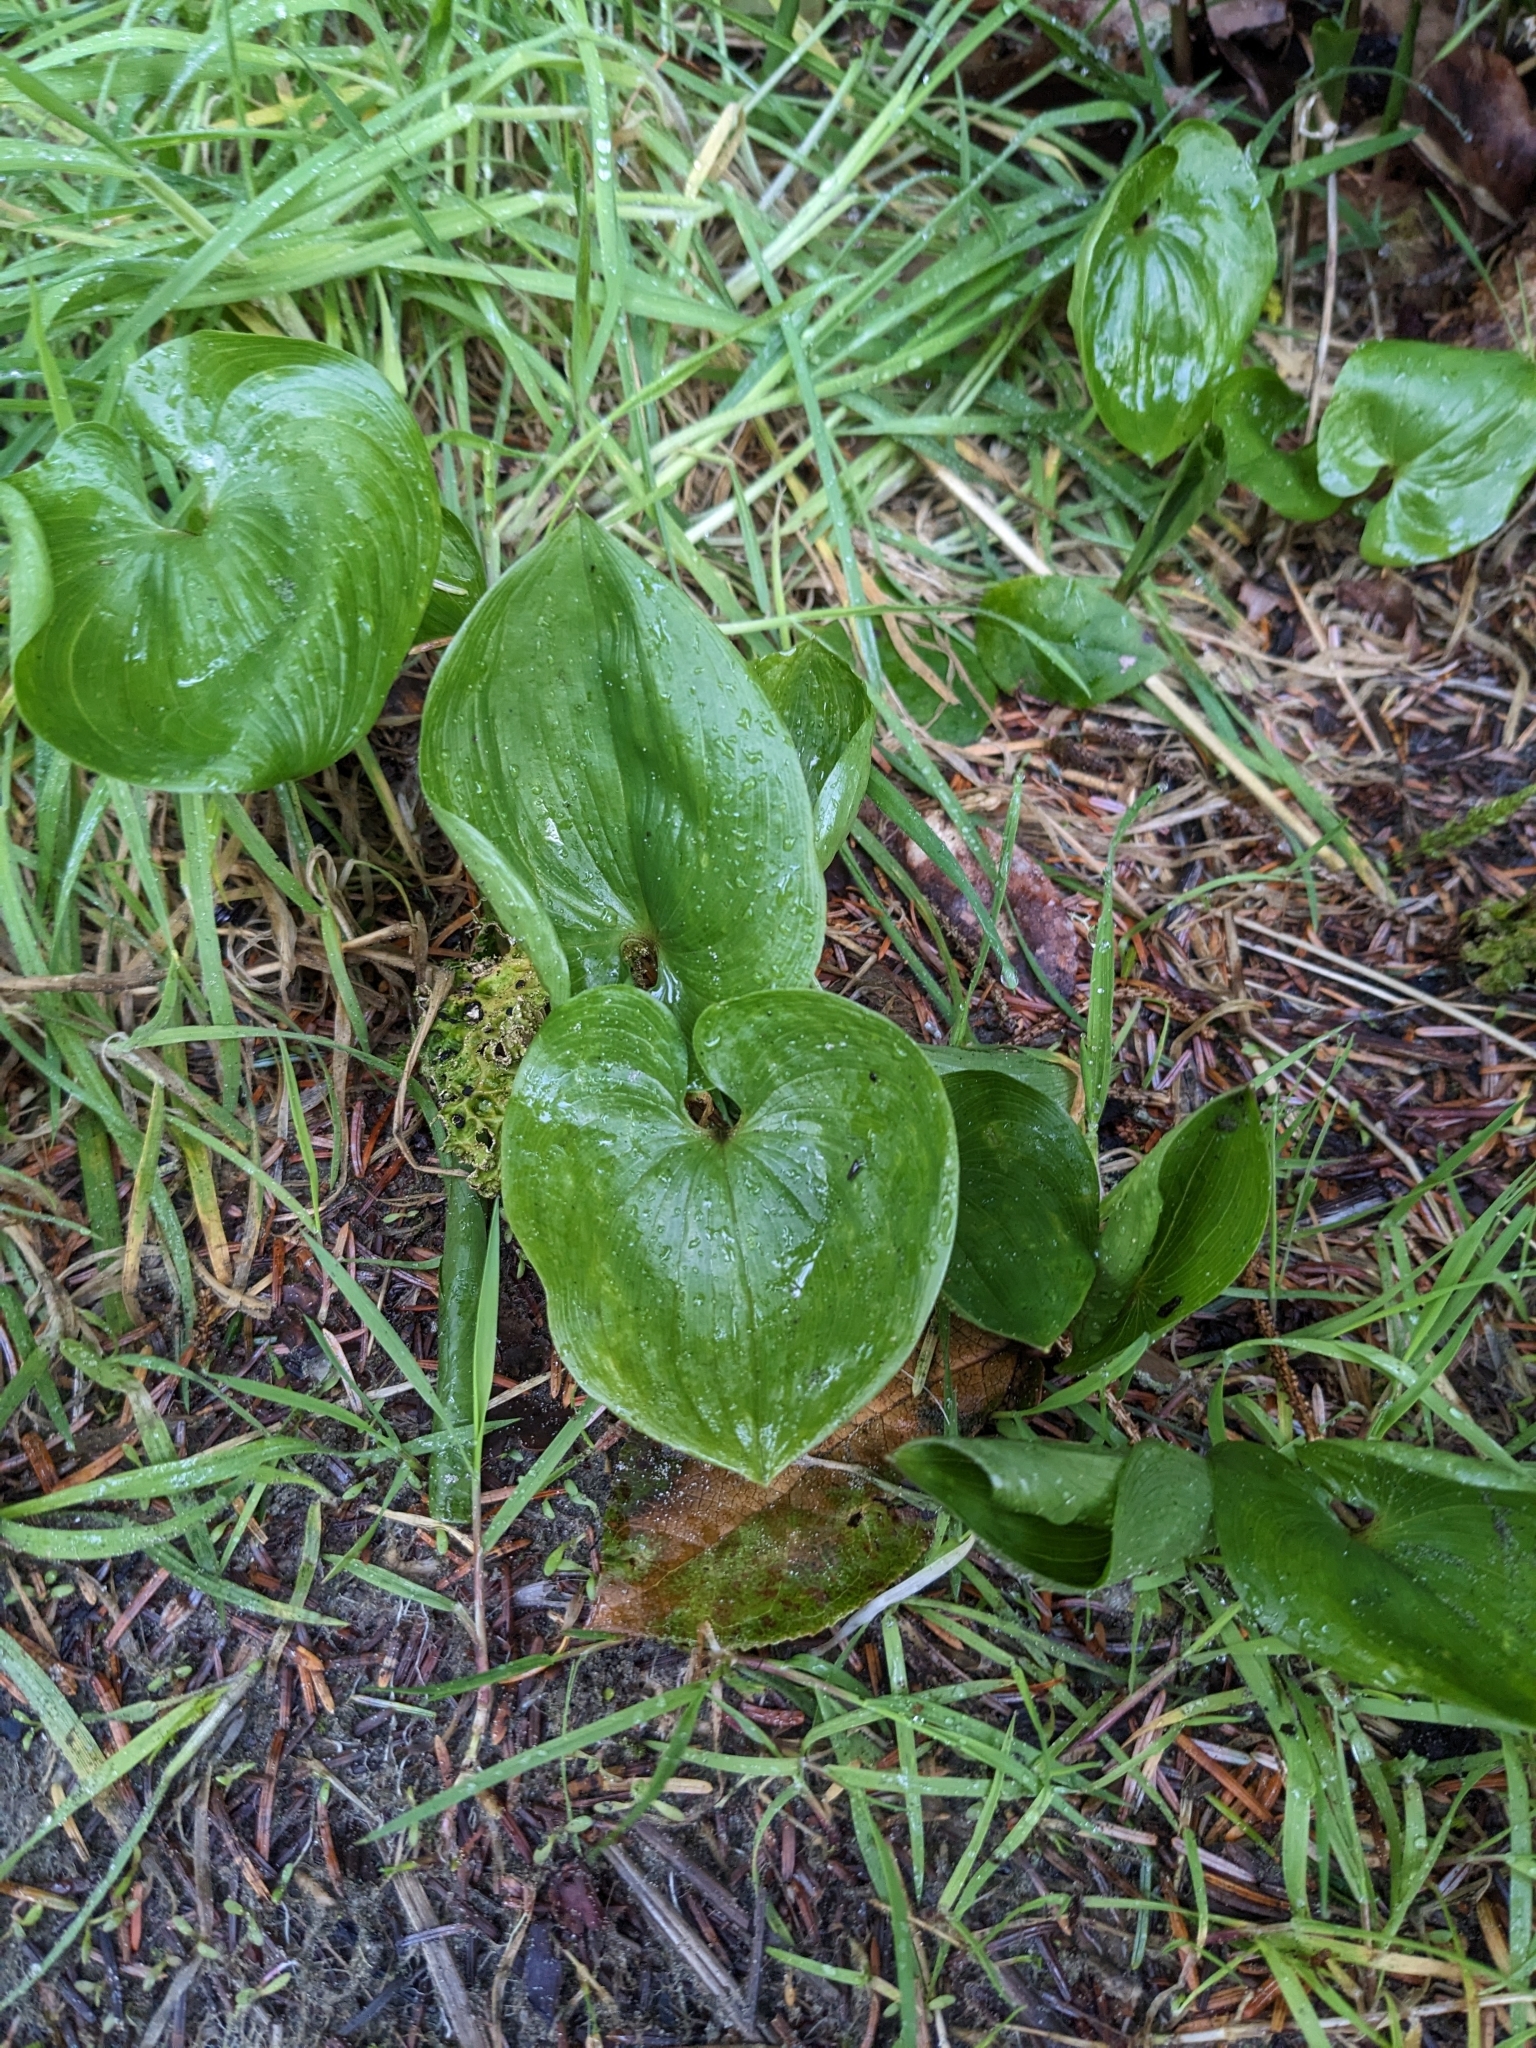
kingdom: Plantae
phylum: Tracheophyta
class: Liliopsida
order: Asparagales
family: Asparagaceae
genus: Maianthemum
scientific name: Maianthemum dilatatum
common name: False lily-of-the-valley
